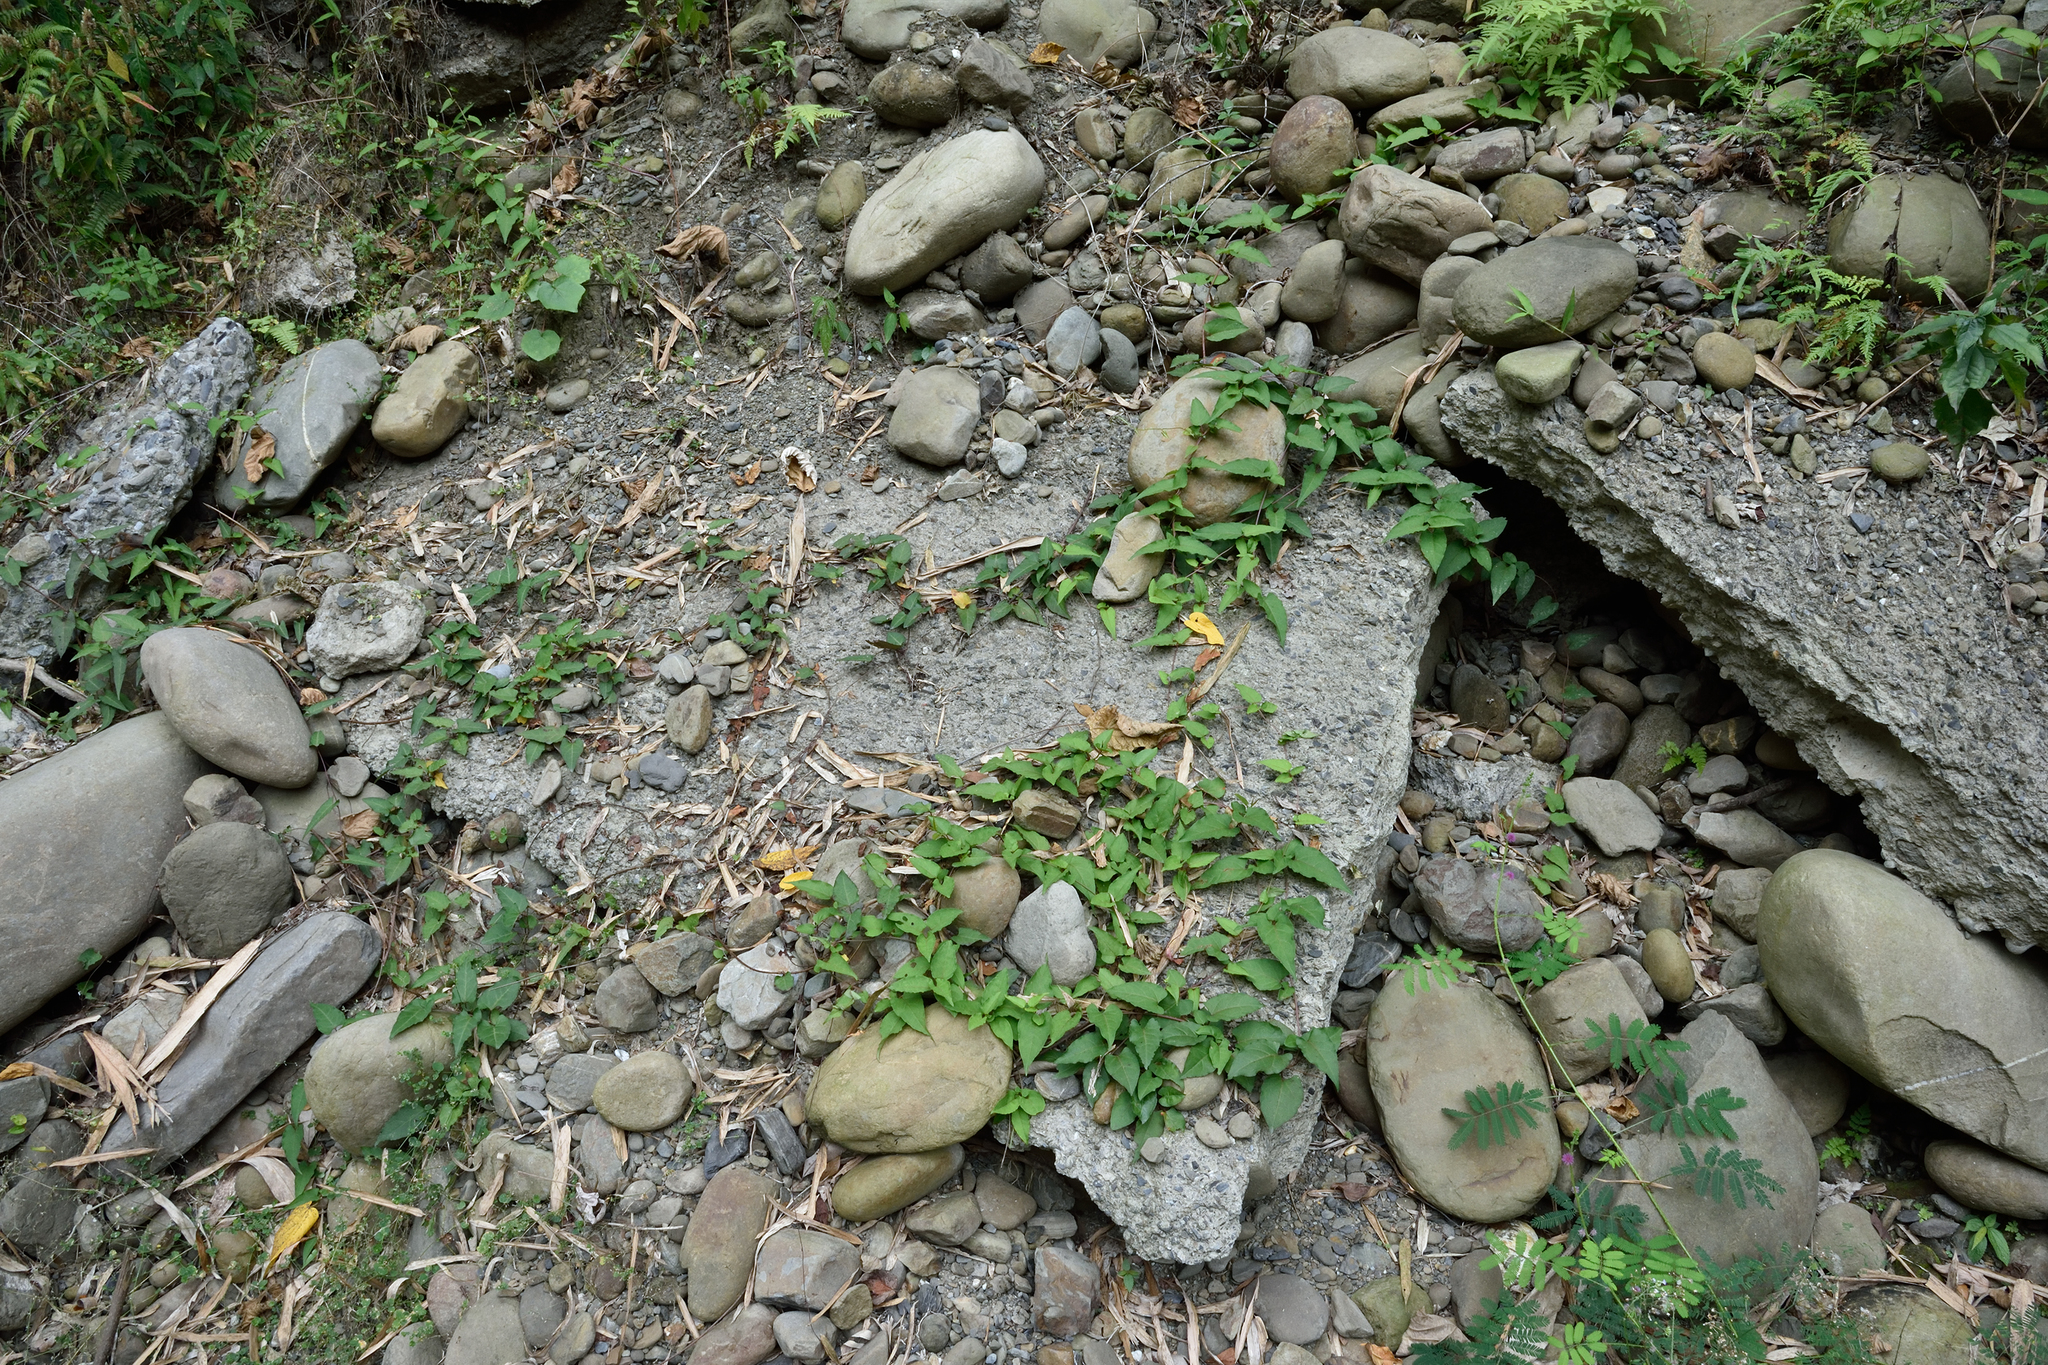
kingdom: Plantae
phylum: Tracheophyta
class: Magnoliopsida
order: Caryophyllales
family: Polygonaceae
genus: Reynoutria
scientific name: Reynoutria multiflora
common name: Chinese fleeceflower
